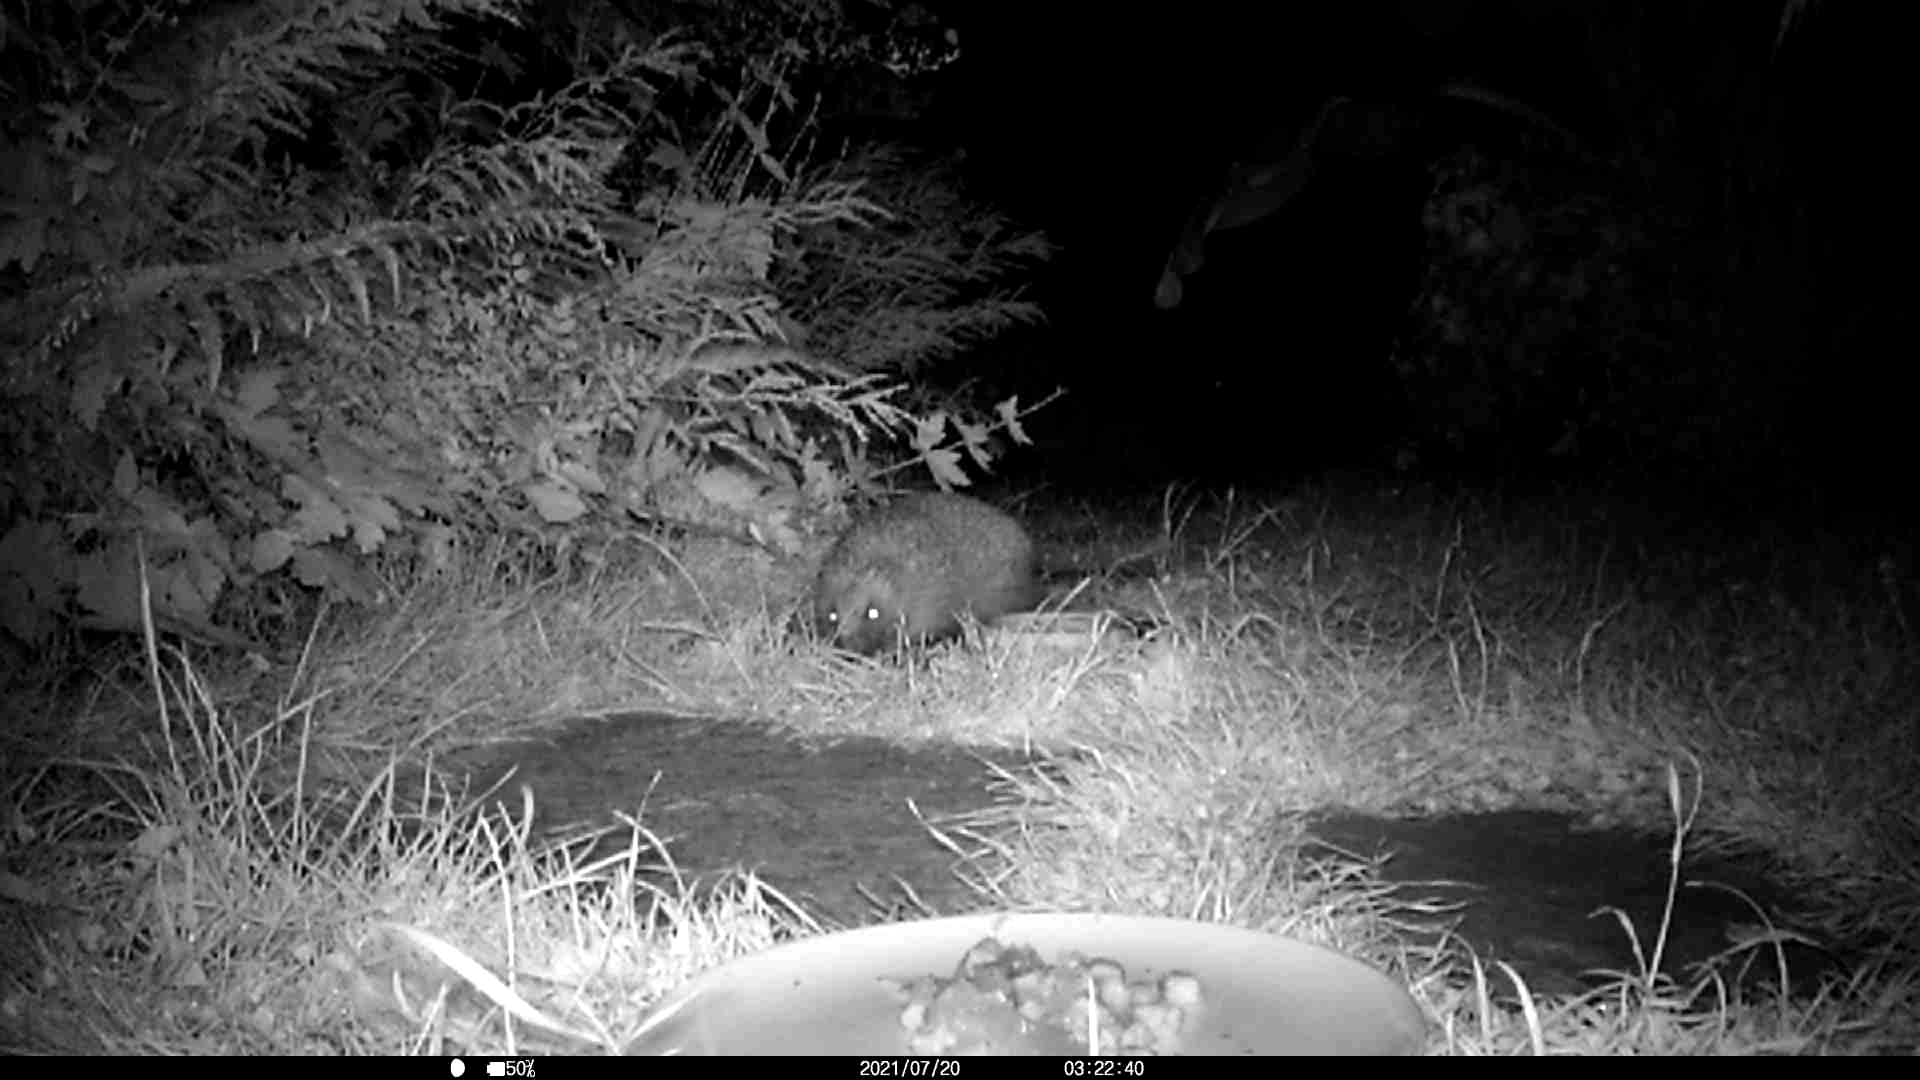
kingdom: Animalia
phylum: Chordata
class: Mammalia
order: Erinaceomorpha
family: Erinaceidae
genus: Erinaceus
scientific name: Erinaceus europaeus
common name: West european hedgehog
